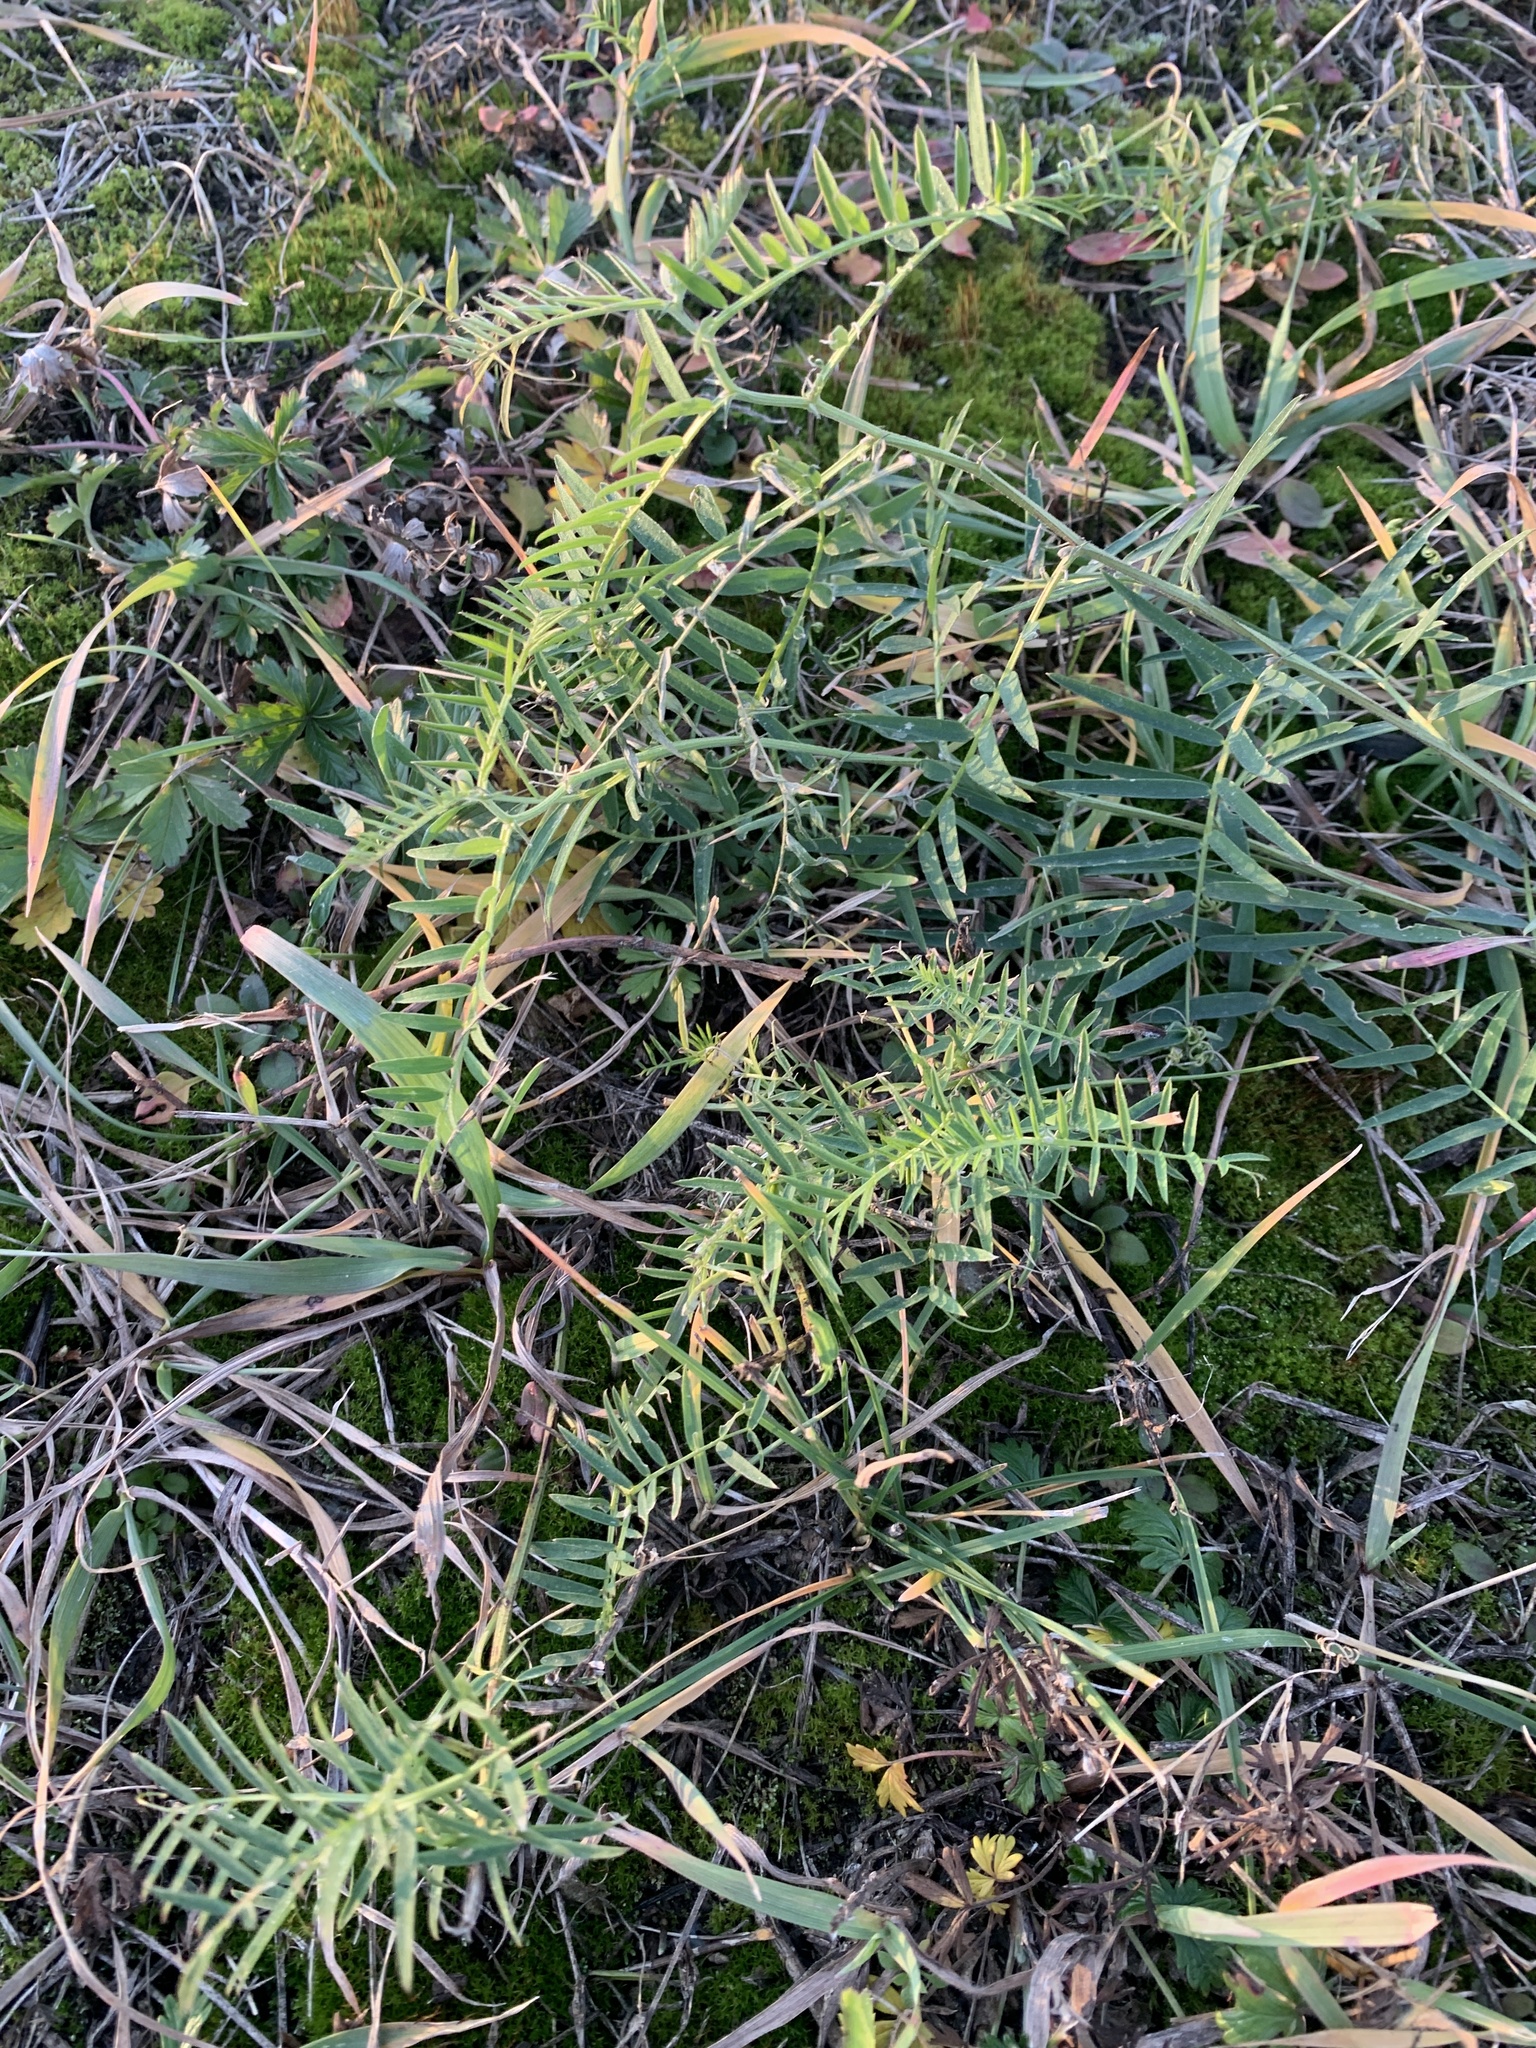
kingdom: Plantae
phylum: Tracheophyta
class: Magnoliopsida
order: Fabales
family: Fabaceae
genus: Vicia
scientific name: Vicia cracca
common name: Bird vetch
